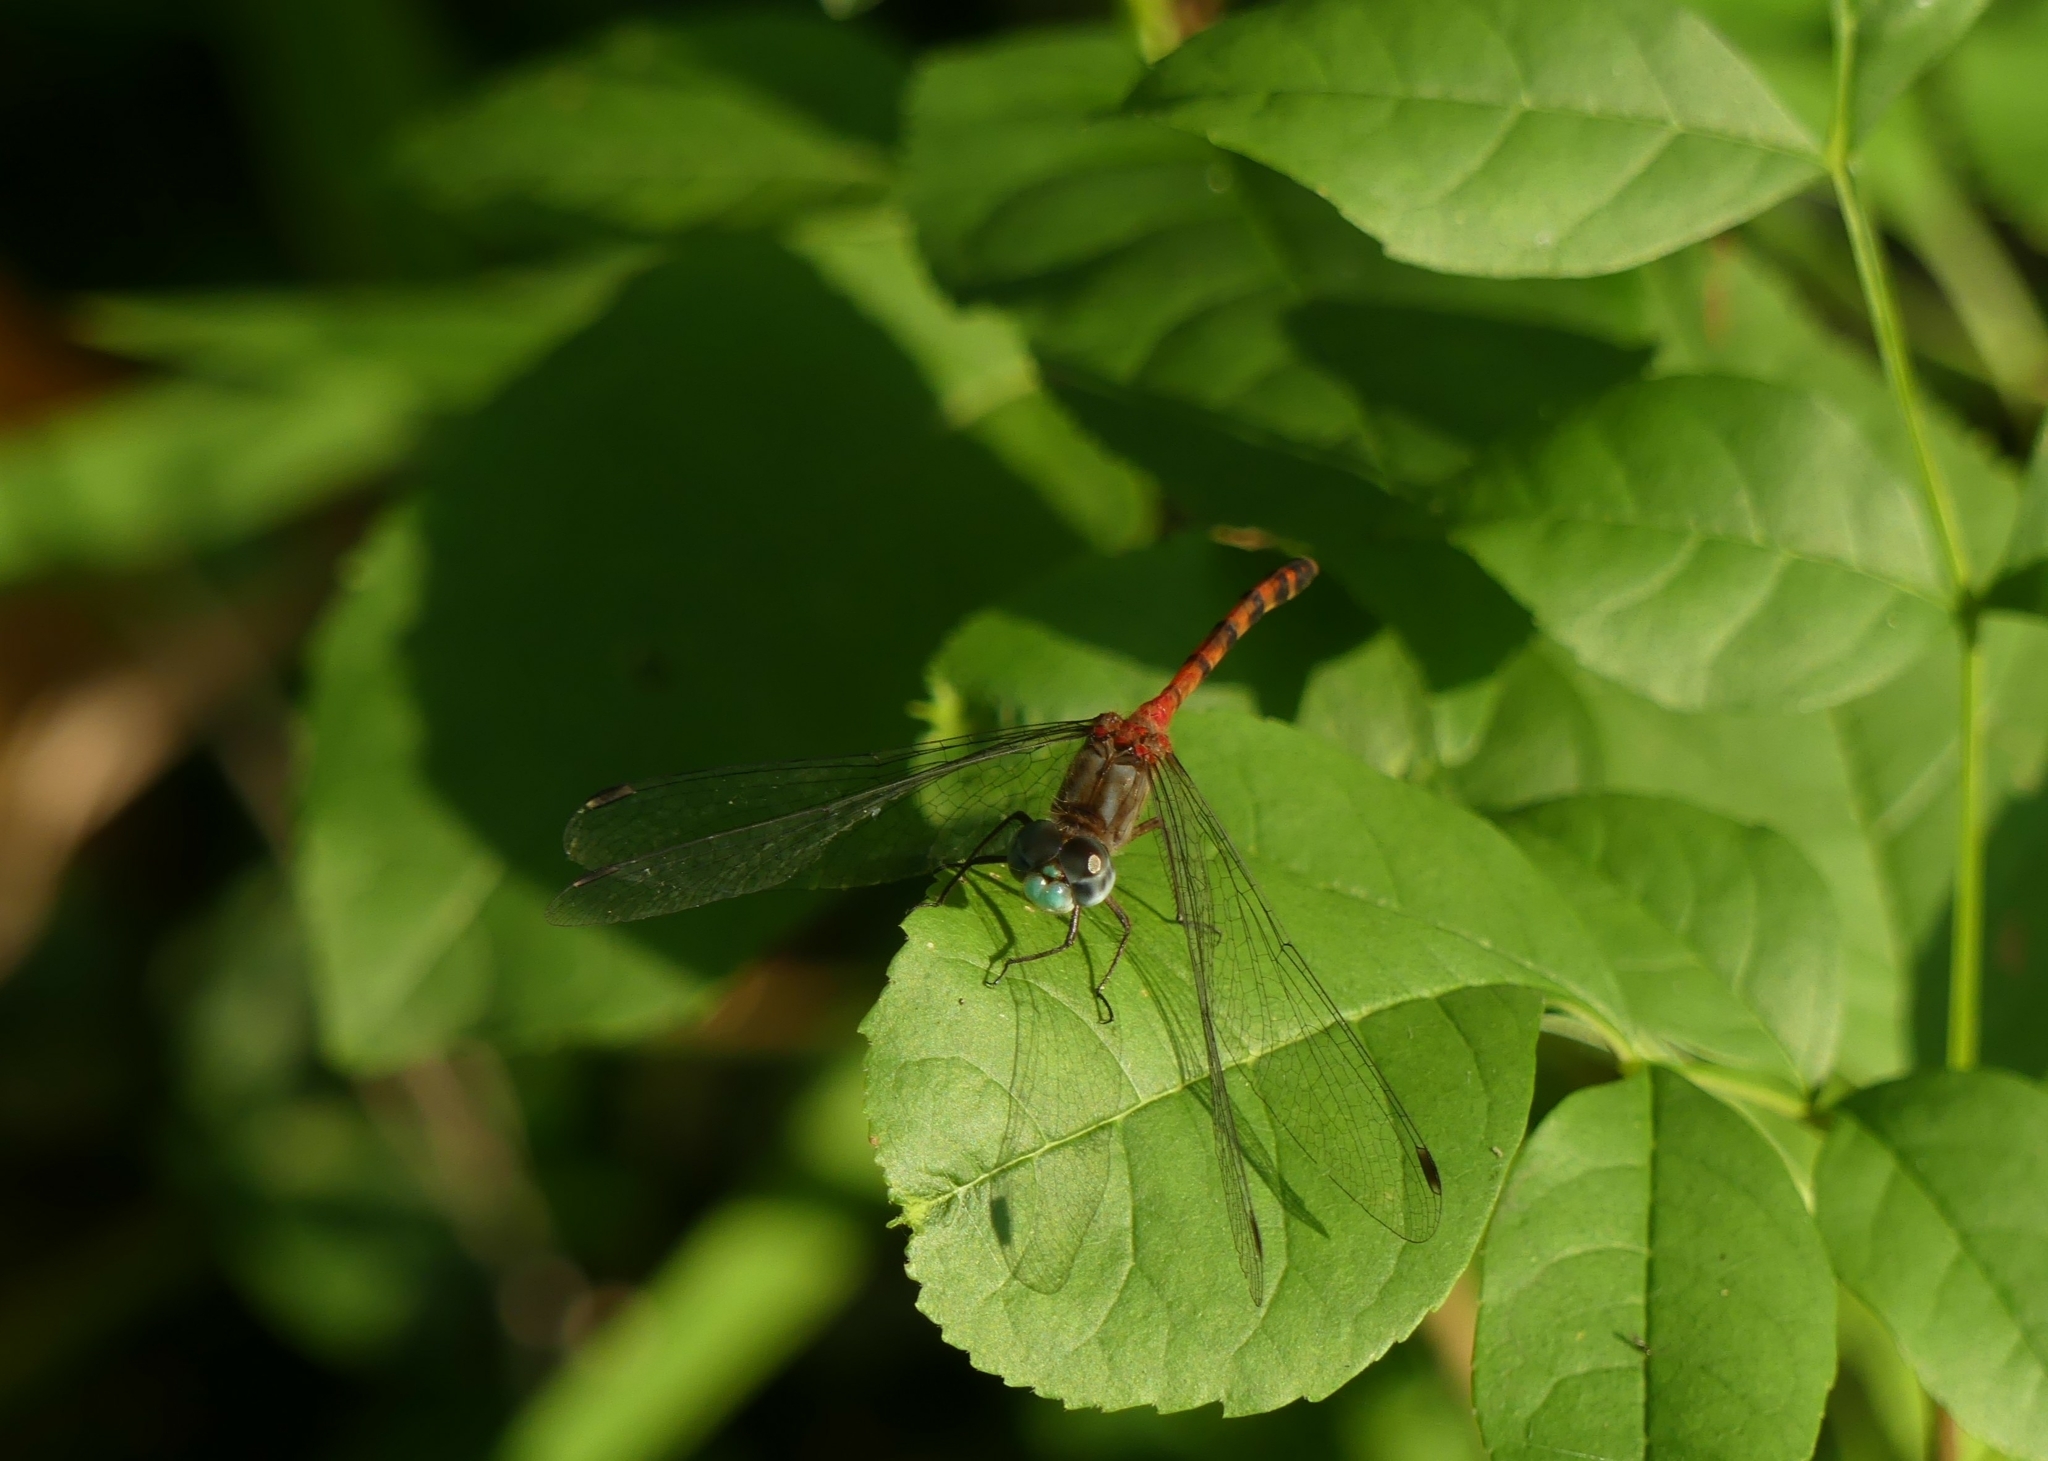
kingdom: Animalia
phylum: Arthropoda
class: Insecta
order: Odonata
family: Libellulidae
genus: Sympetrum
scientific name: Sympetrum ambiguum
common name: Blue-faced meadowhawk
